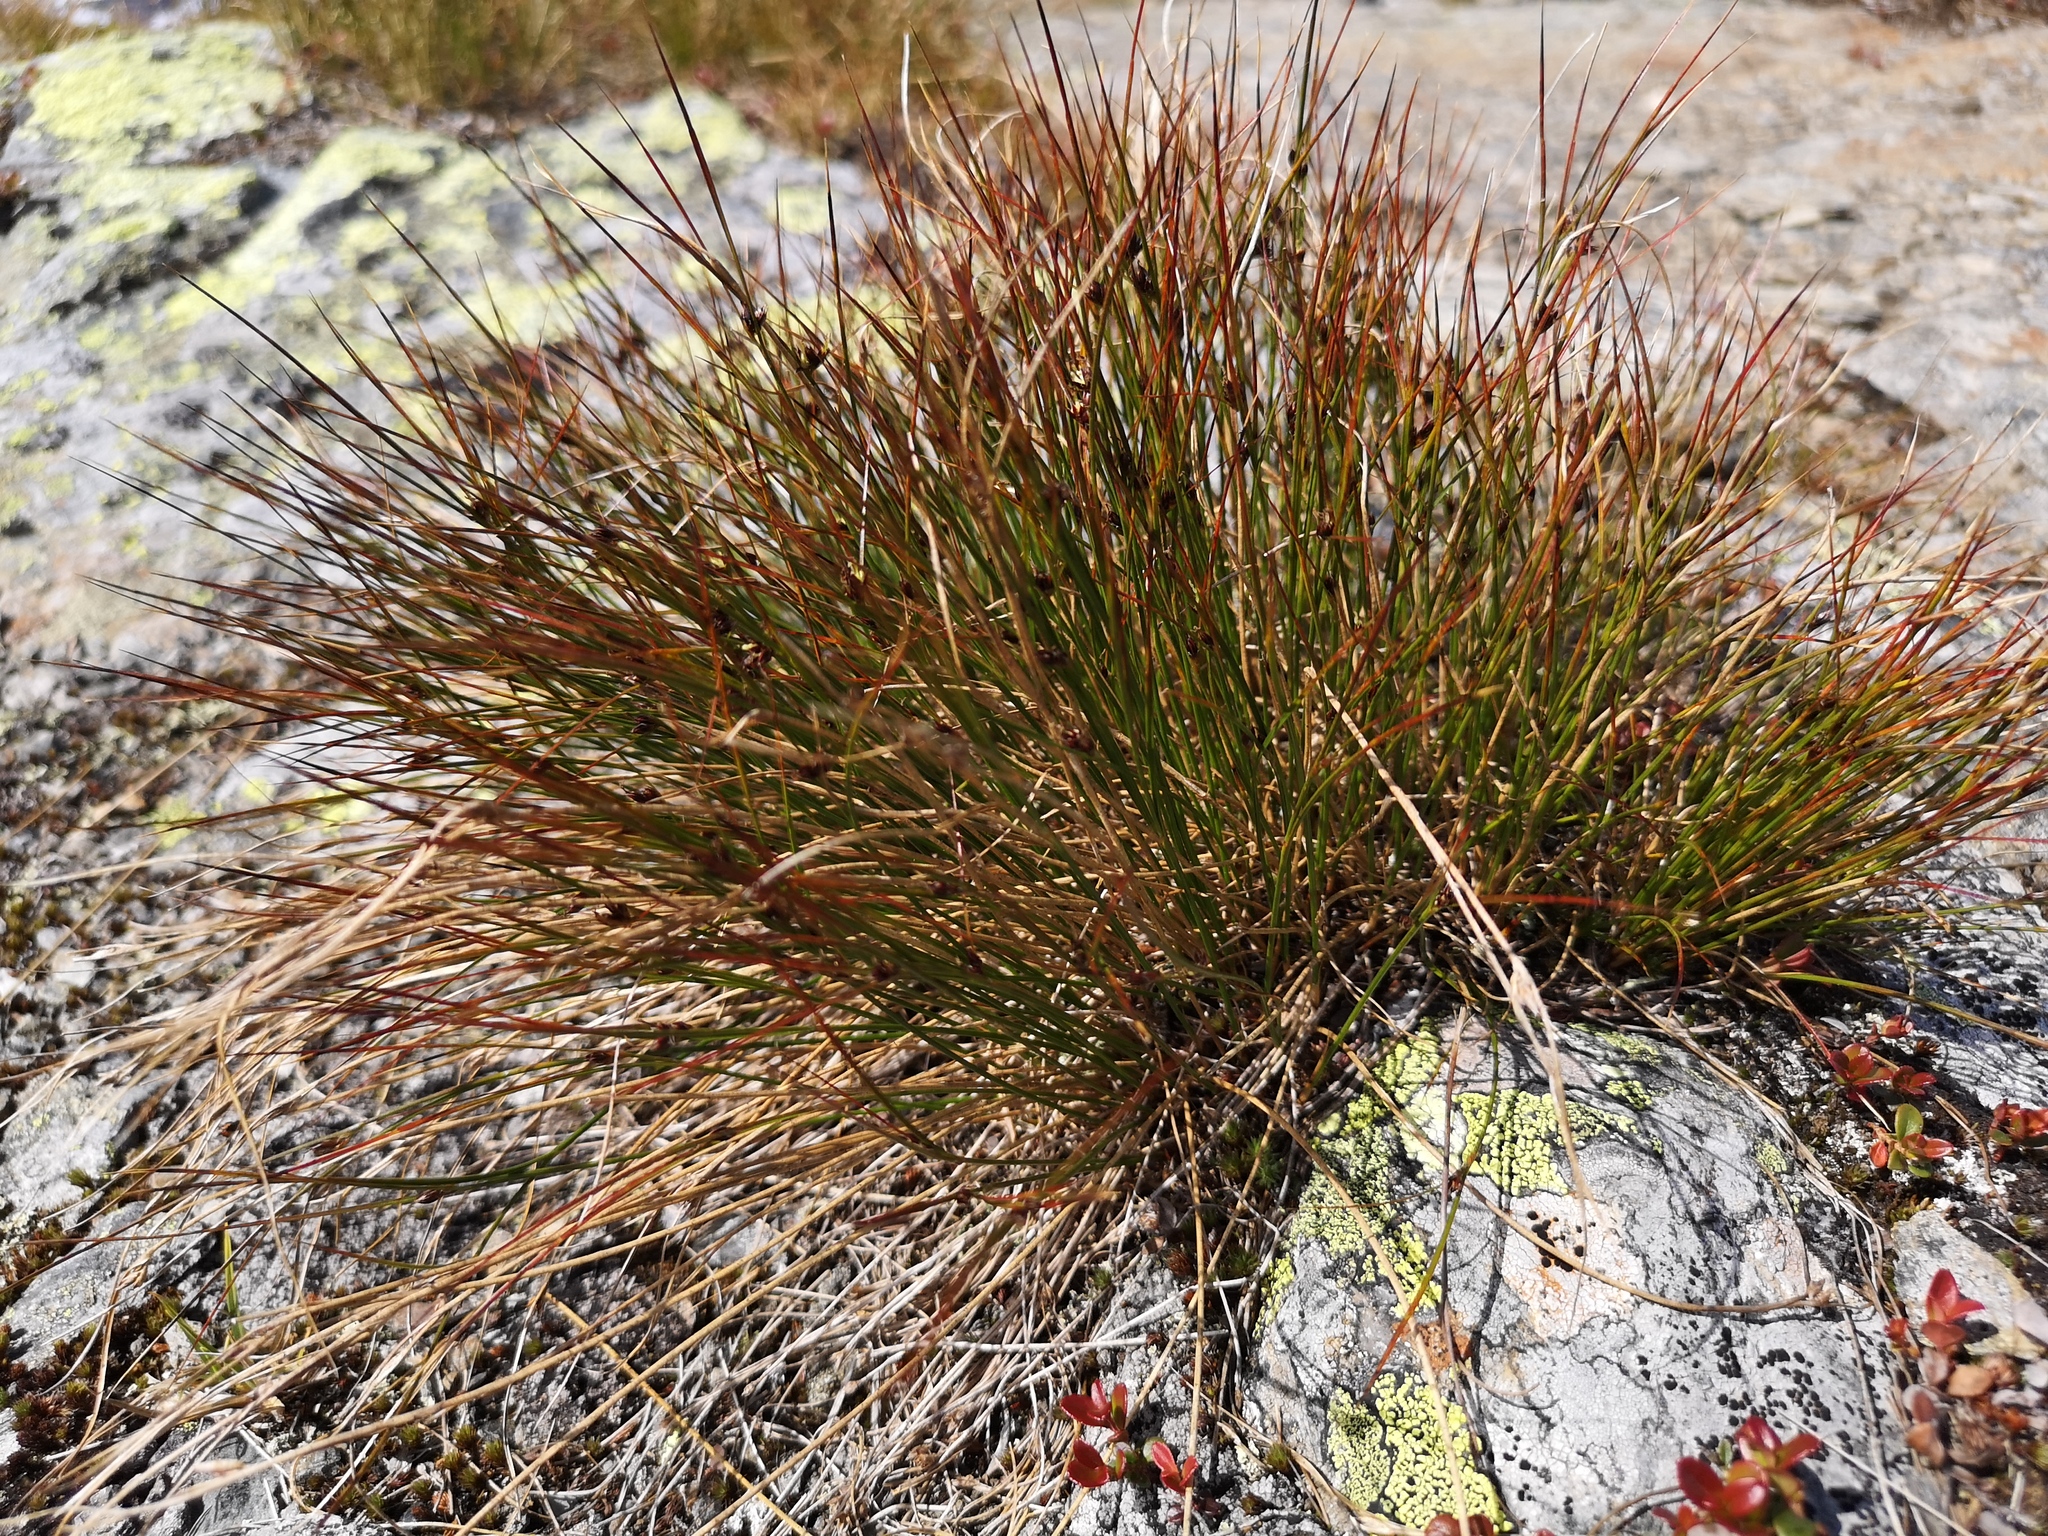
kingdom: Plantae
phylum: Tracheophyta
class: Liliopsida
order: Poales
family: Juncaceae
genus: Oreojuncus
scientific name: Oreojuncus trifidus
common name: Highland rush
